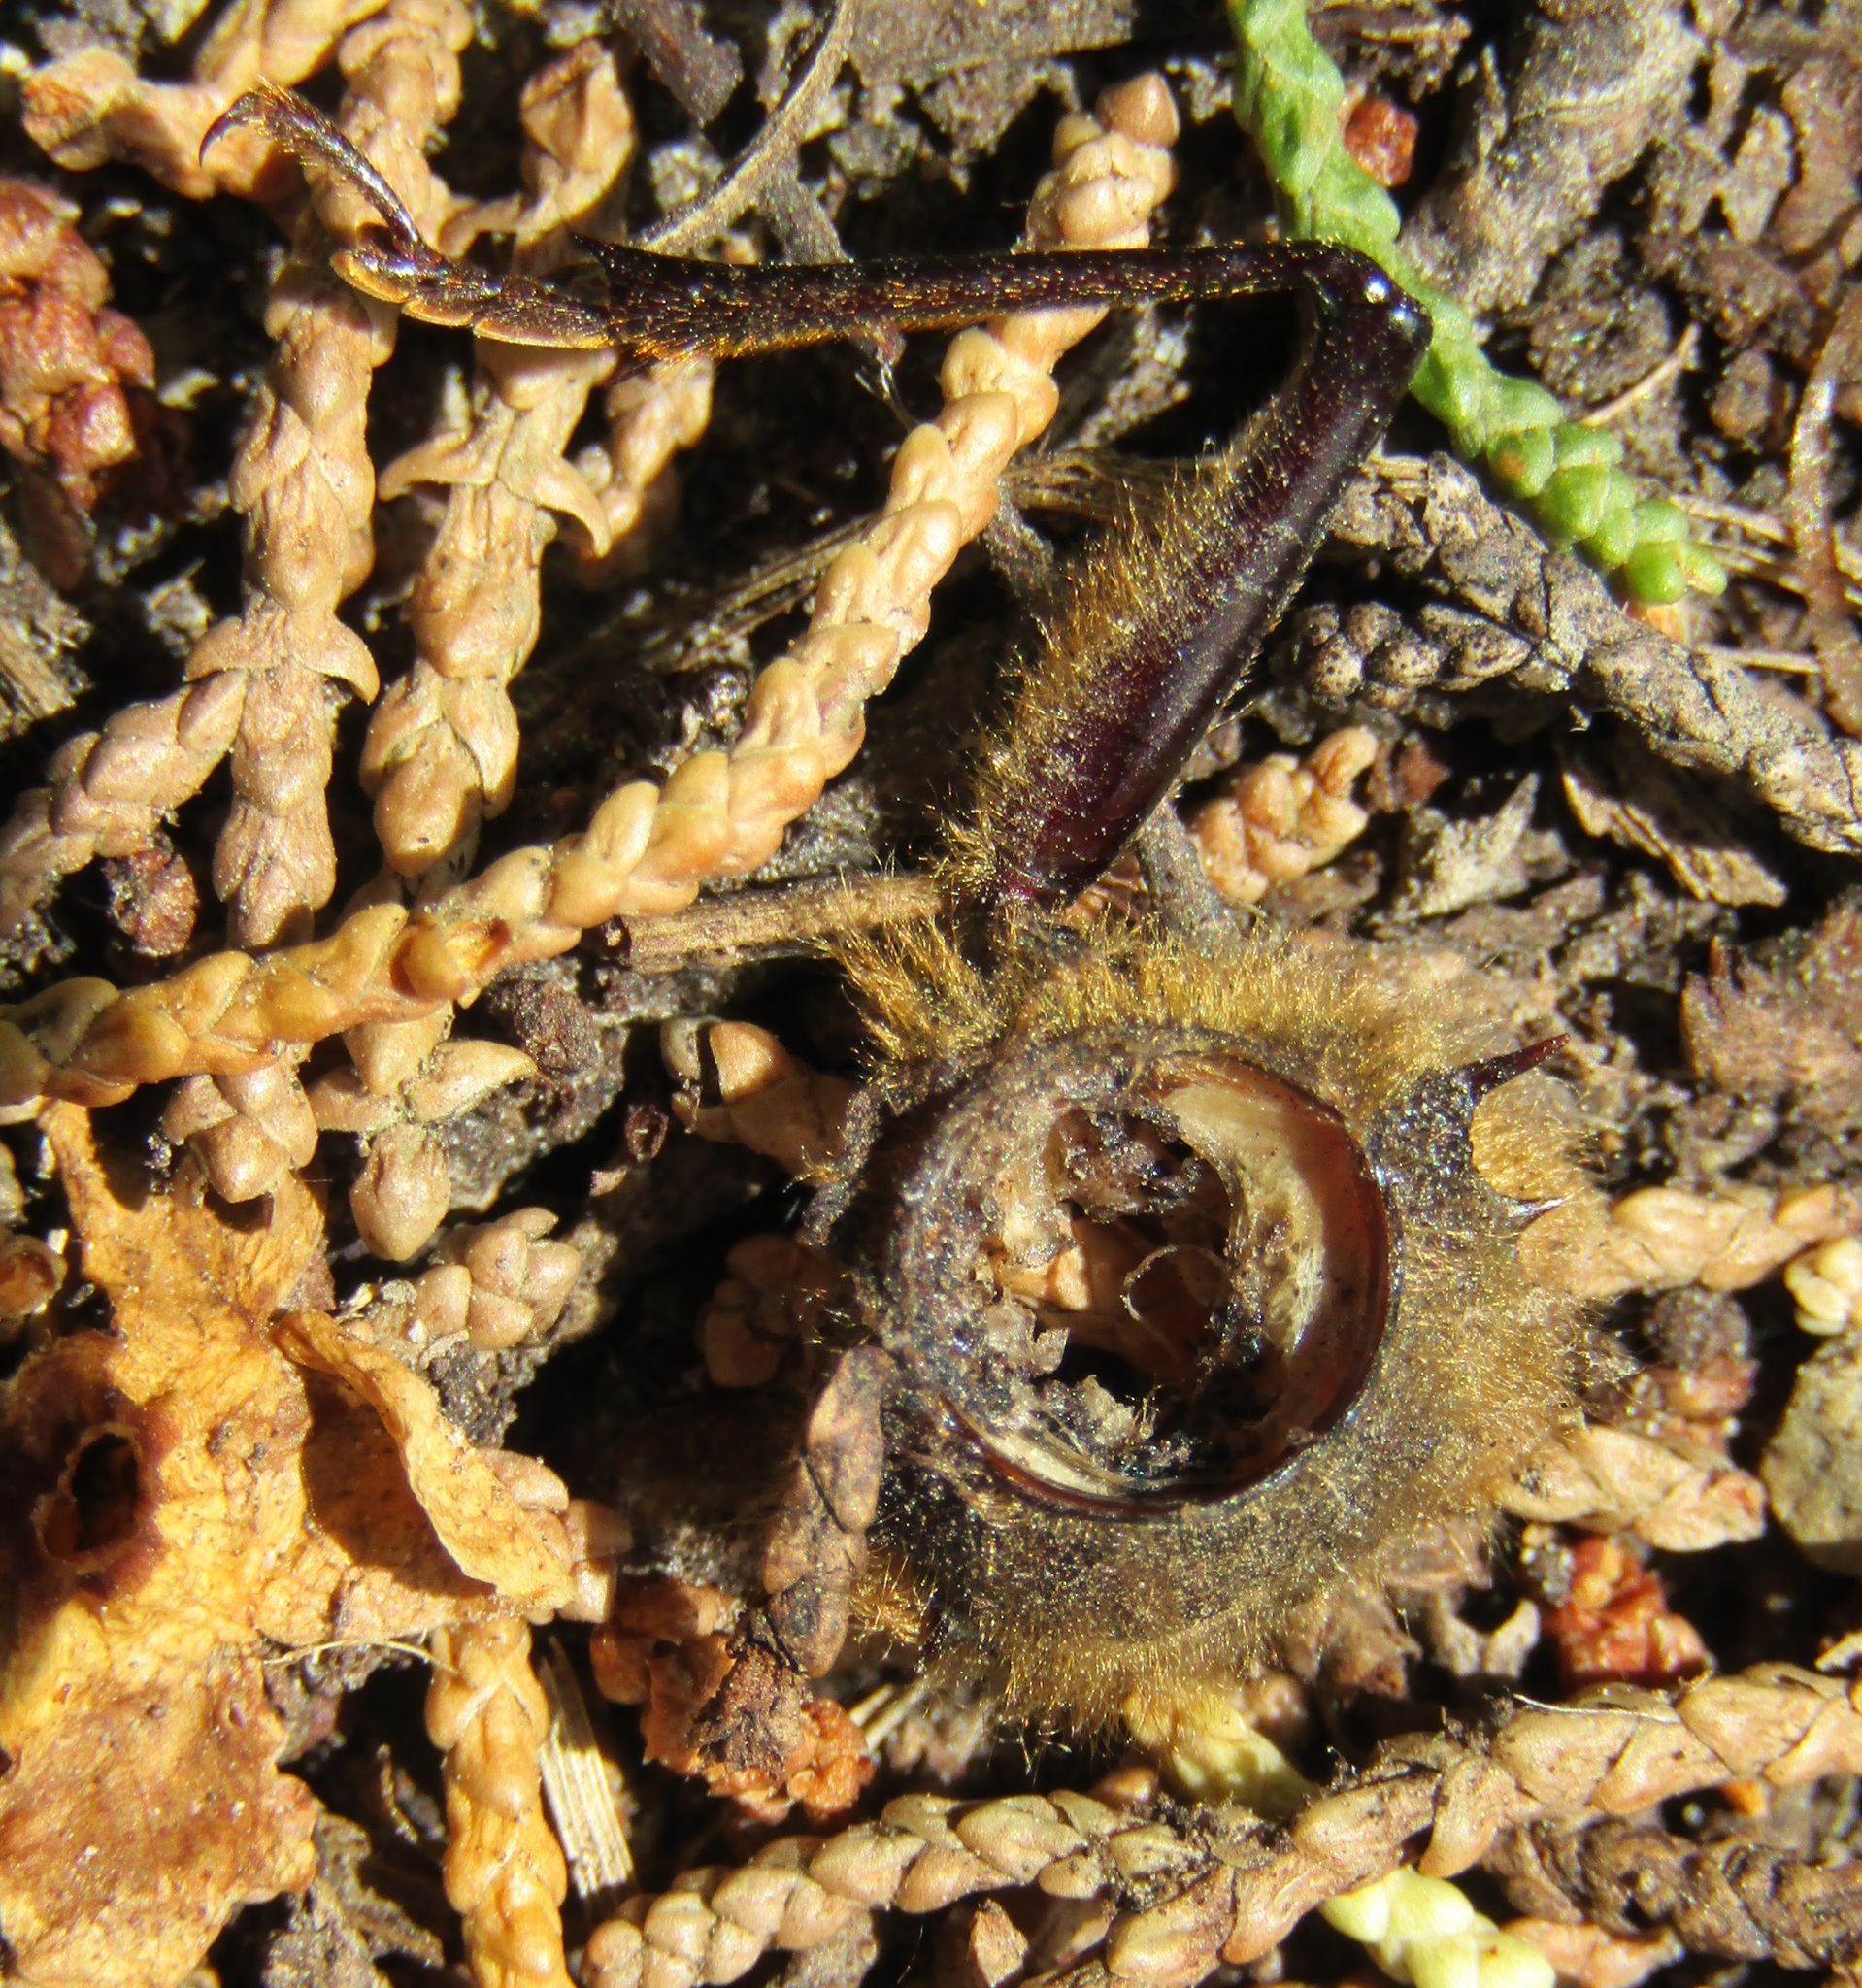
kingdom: Animalia
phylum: Arthropoda
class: Insecta
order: Coleoptera
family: Cerambycidae
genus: Prionoplus
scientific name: Prionoplus reticularis
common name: Huhu beetle
